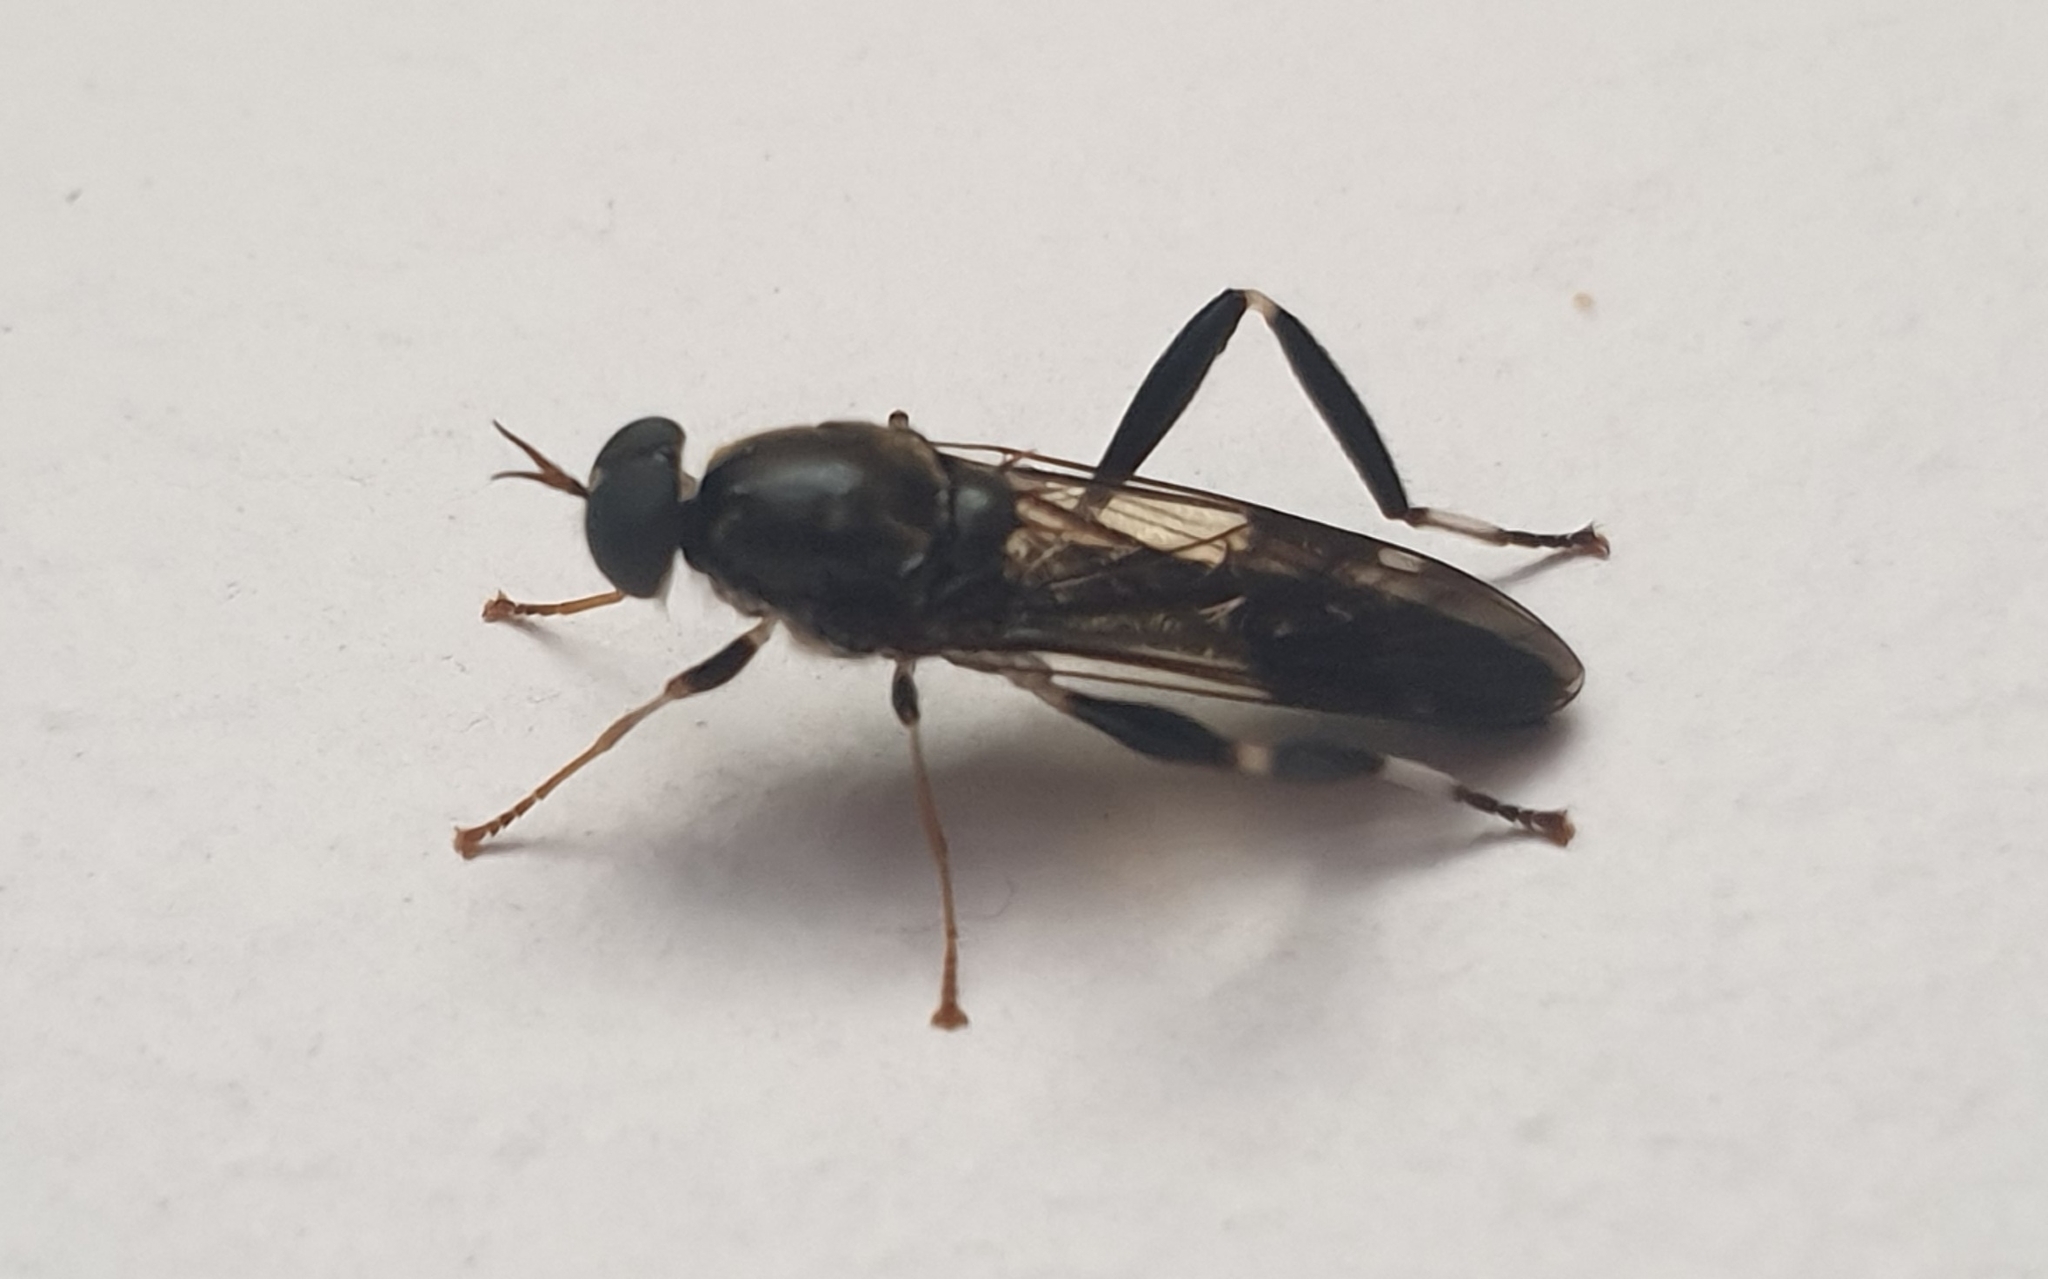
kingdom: Animalia
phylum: Arthropoda
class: Insecta
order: Diptera
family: Stratiomyidae
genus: Exaireta
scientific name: Exaireta spinigera
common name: Blue soldier fly
